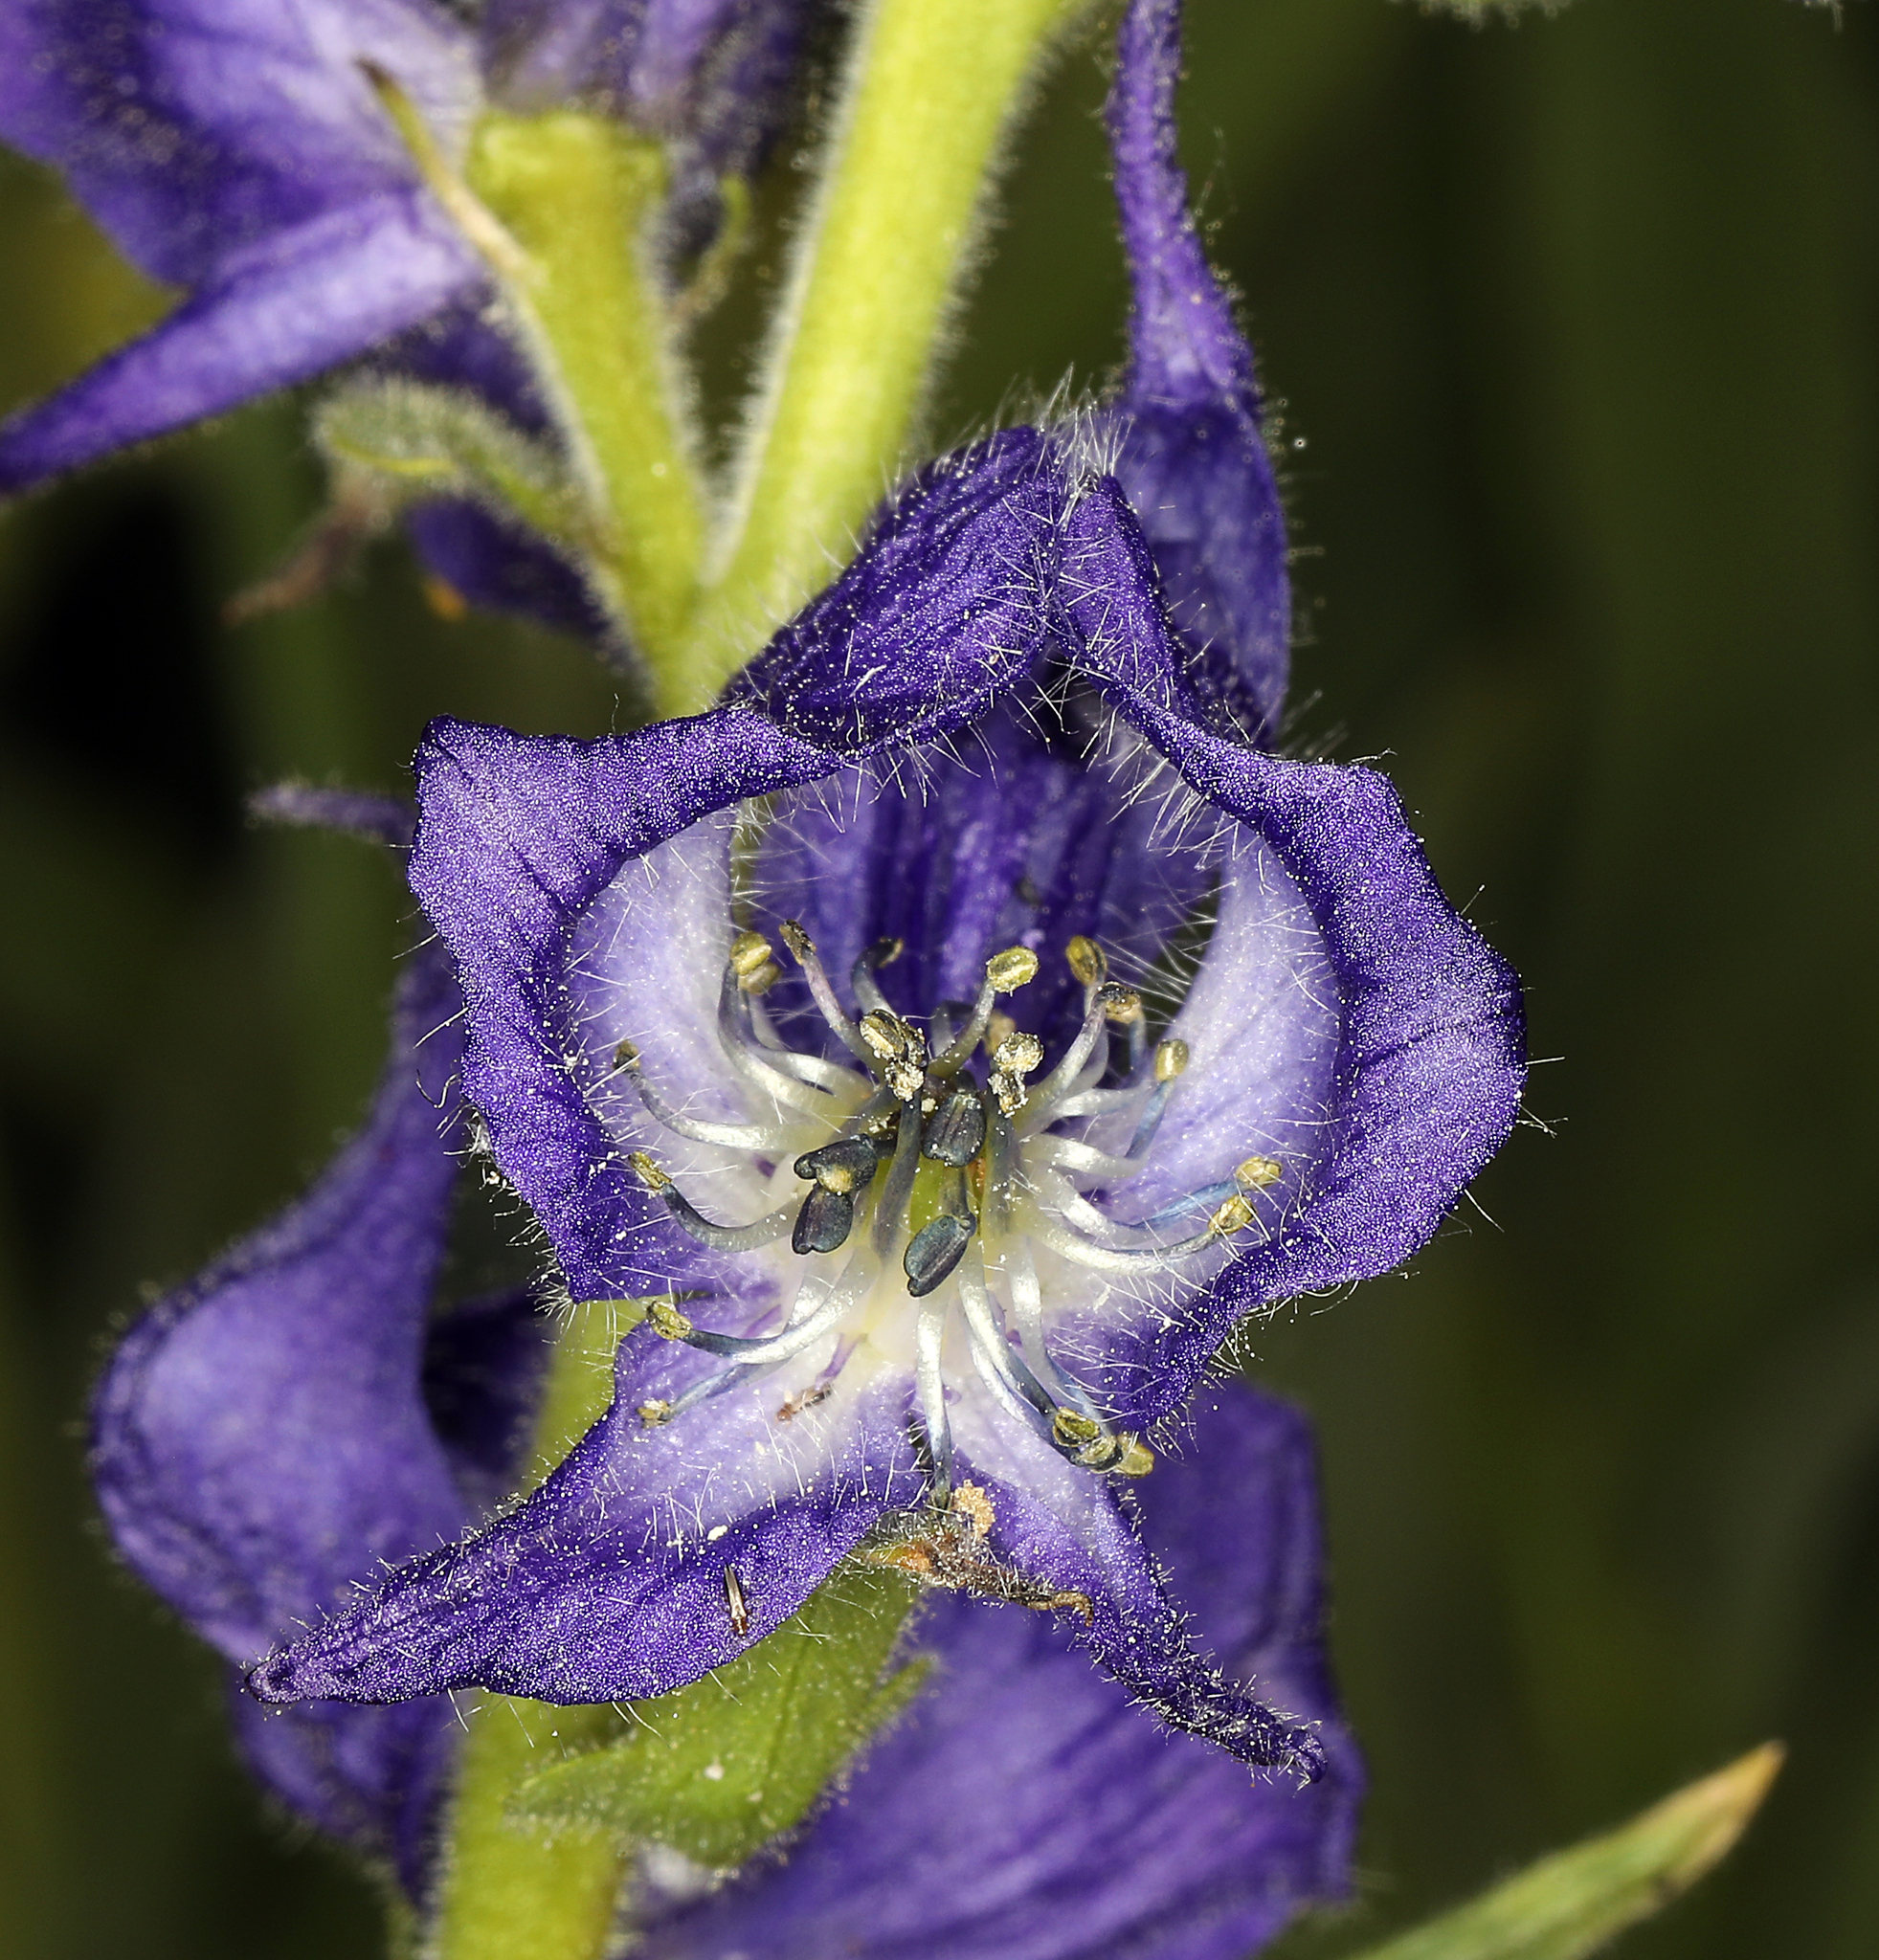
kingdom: Plantae
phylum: Tracheophyta
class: Magnoliopsida
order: Ranunculales
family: Ranunculaceae
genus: Aconitum
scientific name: Aconitum columbianum
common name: Columbia aconite
